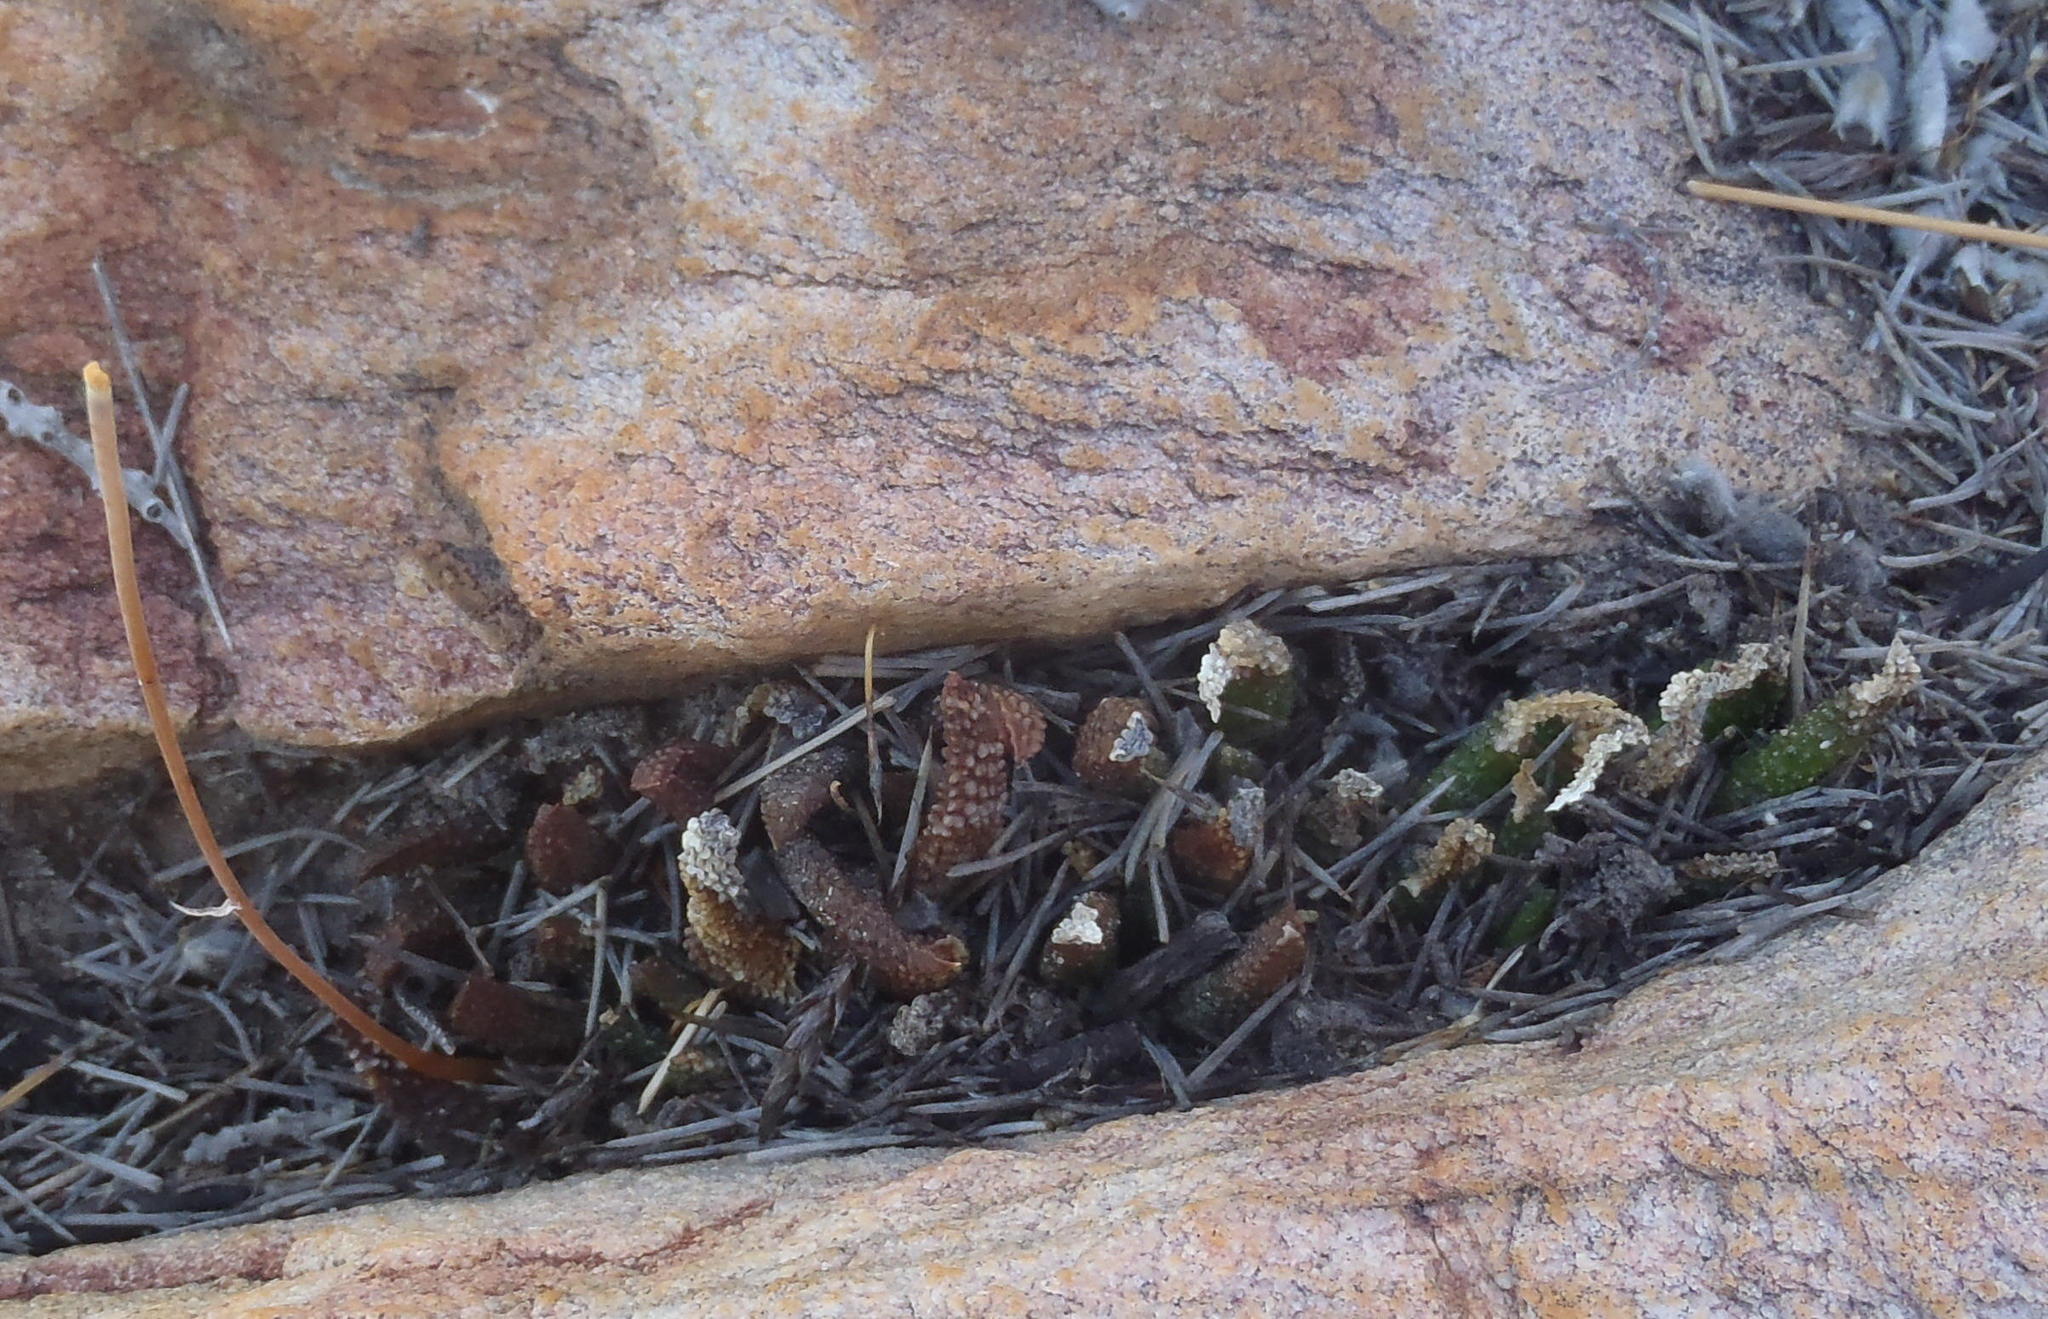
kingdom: Plantae
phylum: Tracheophyta
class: Liliopsida
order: Asparagales
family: Asphodelaceae
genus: Haworthiopsis
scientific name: Haworthiopsis scabra
